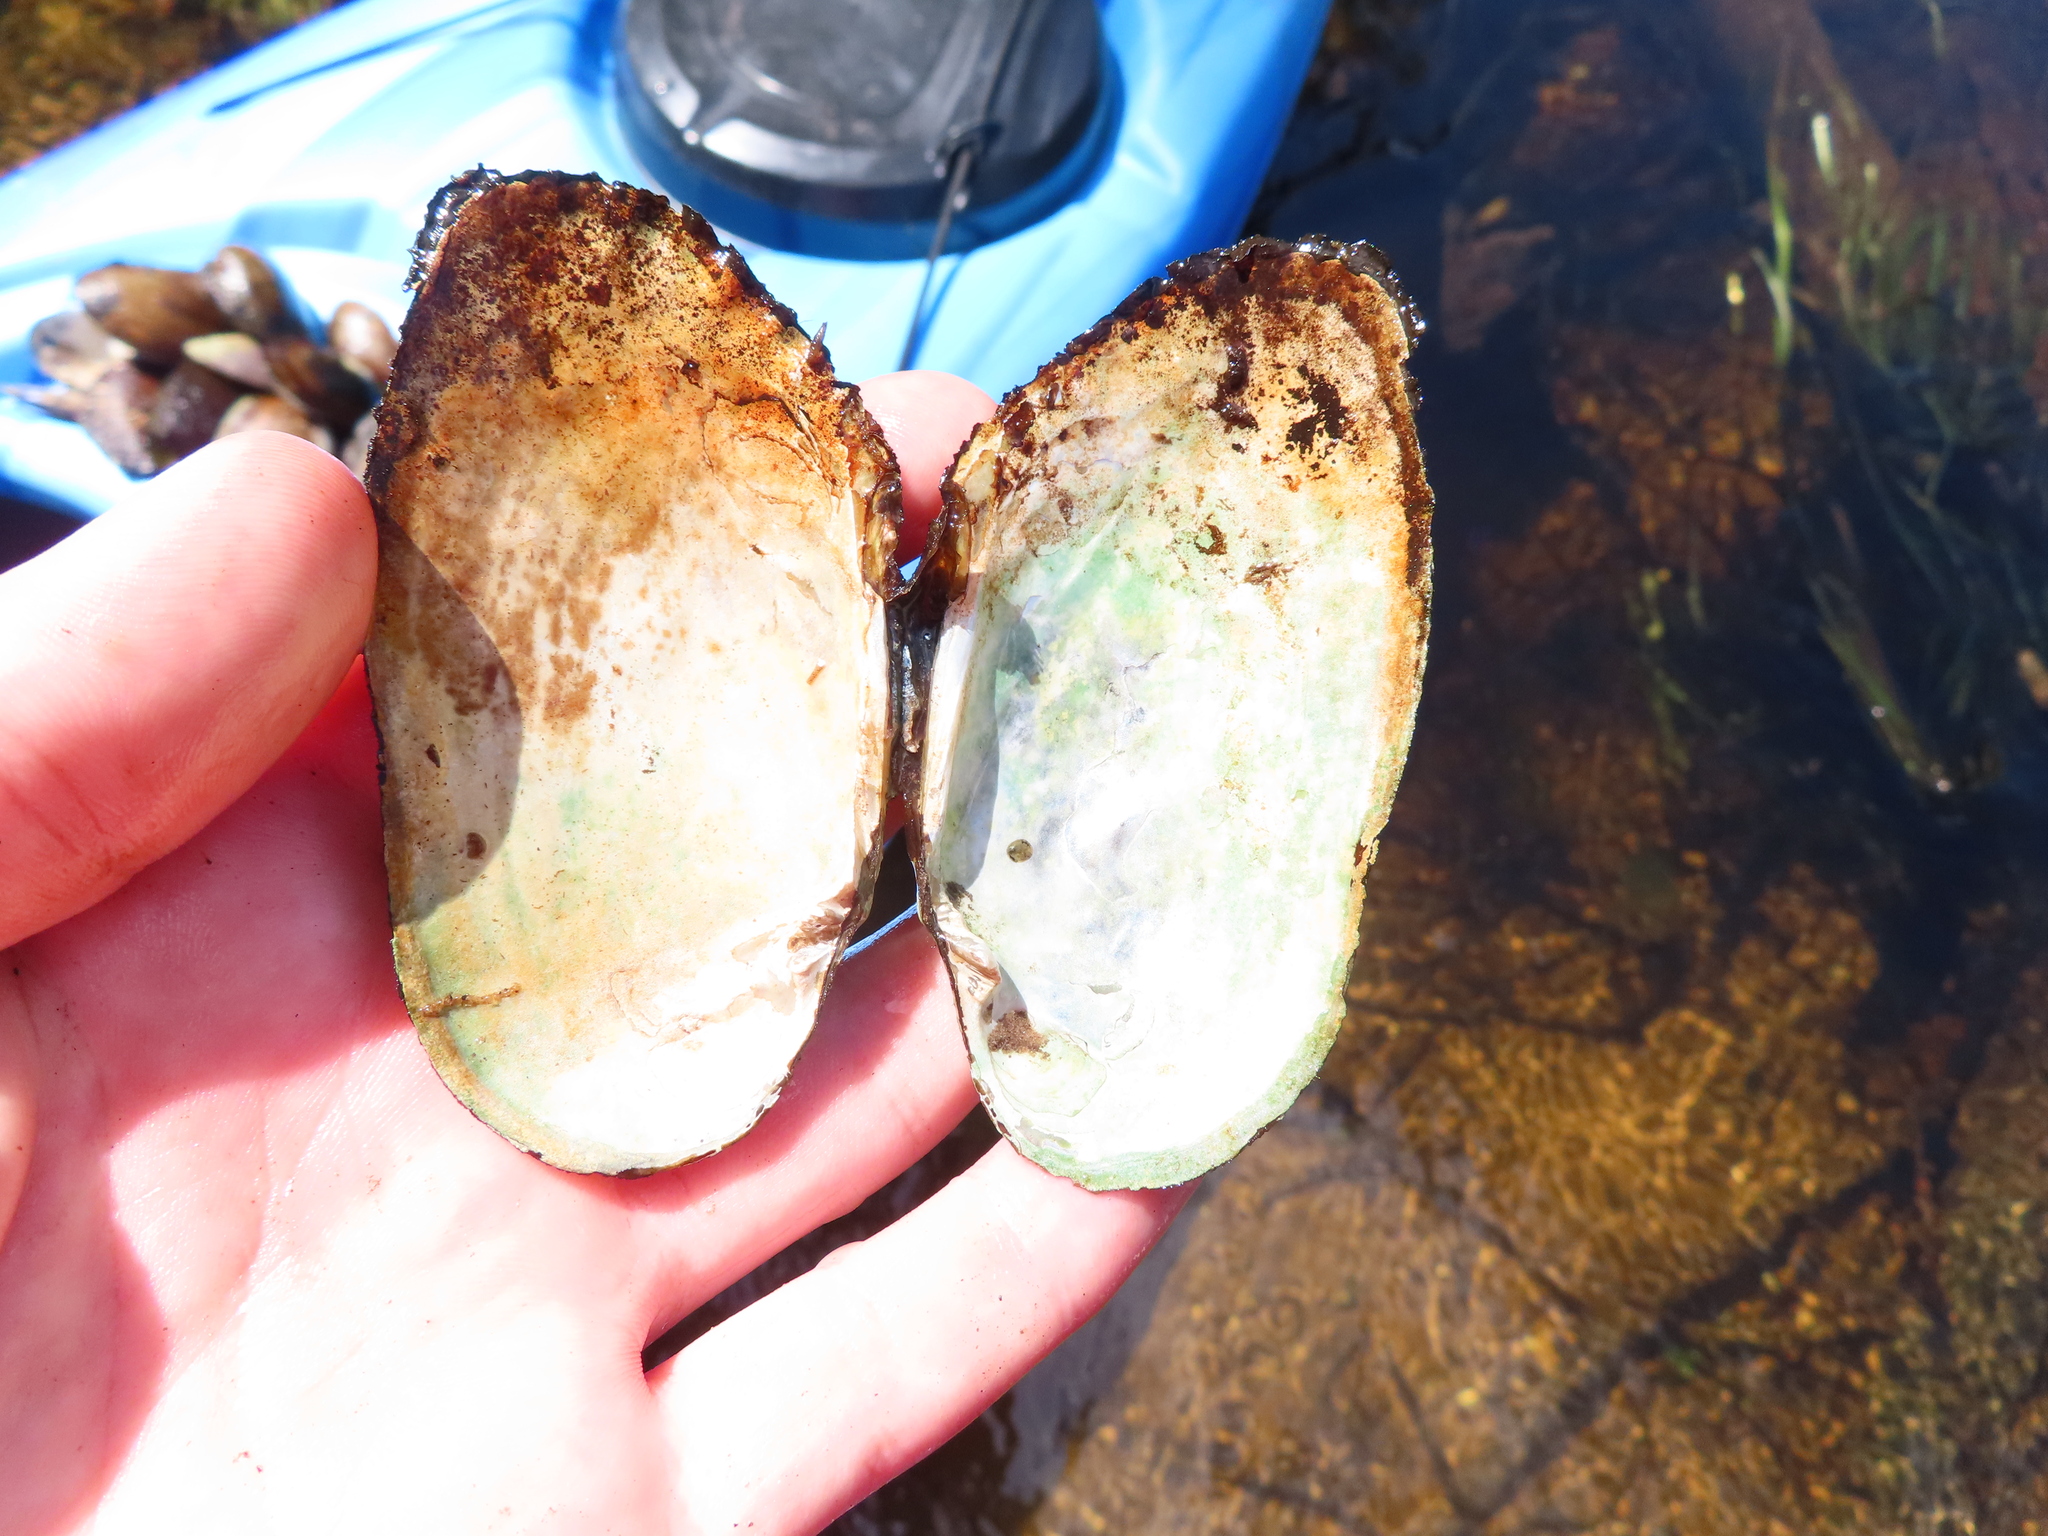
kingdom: Animalia
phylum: Mollusca
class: Bivalvia
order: Unionida
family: Unionidae
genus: Lasmigona
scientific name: Lasmigona costata
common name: Flutedshell
